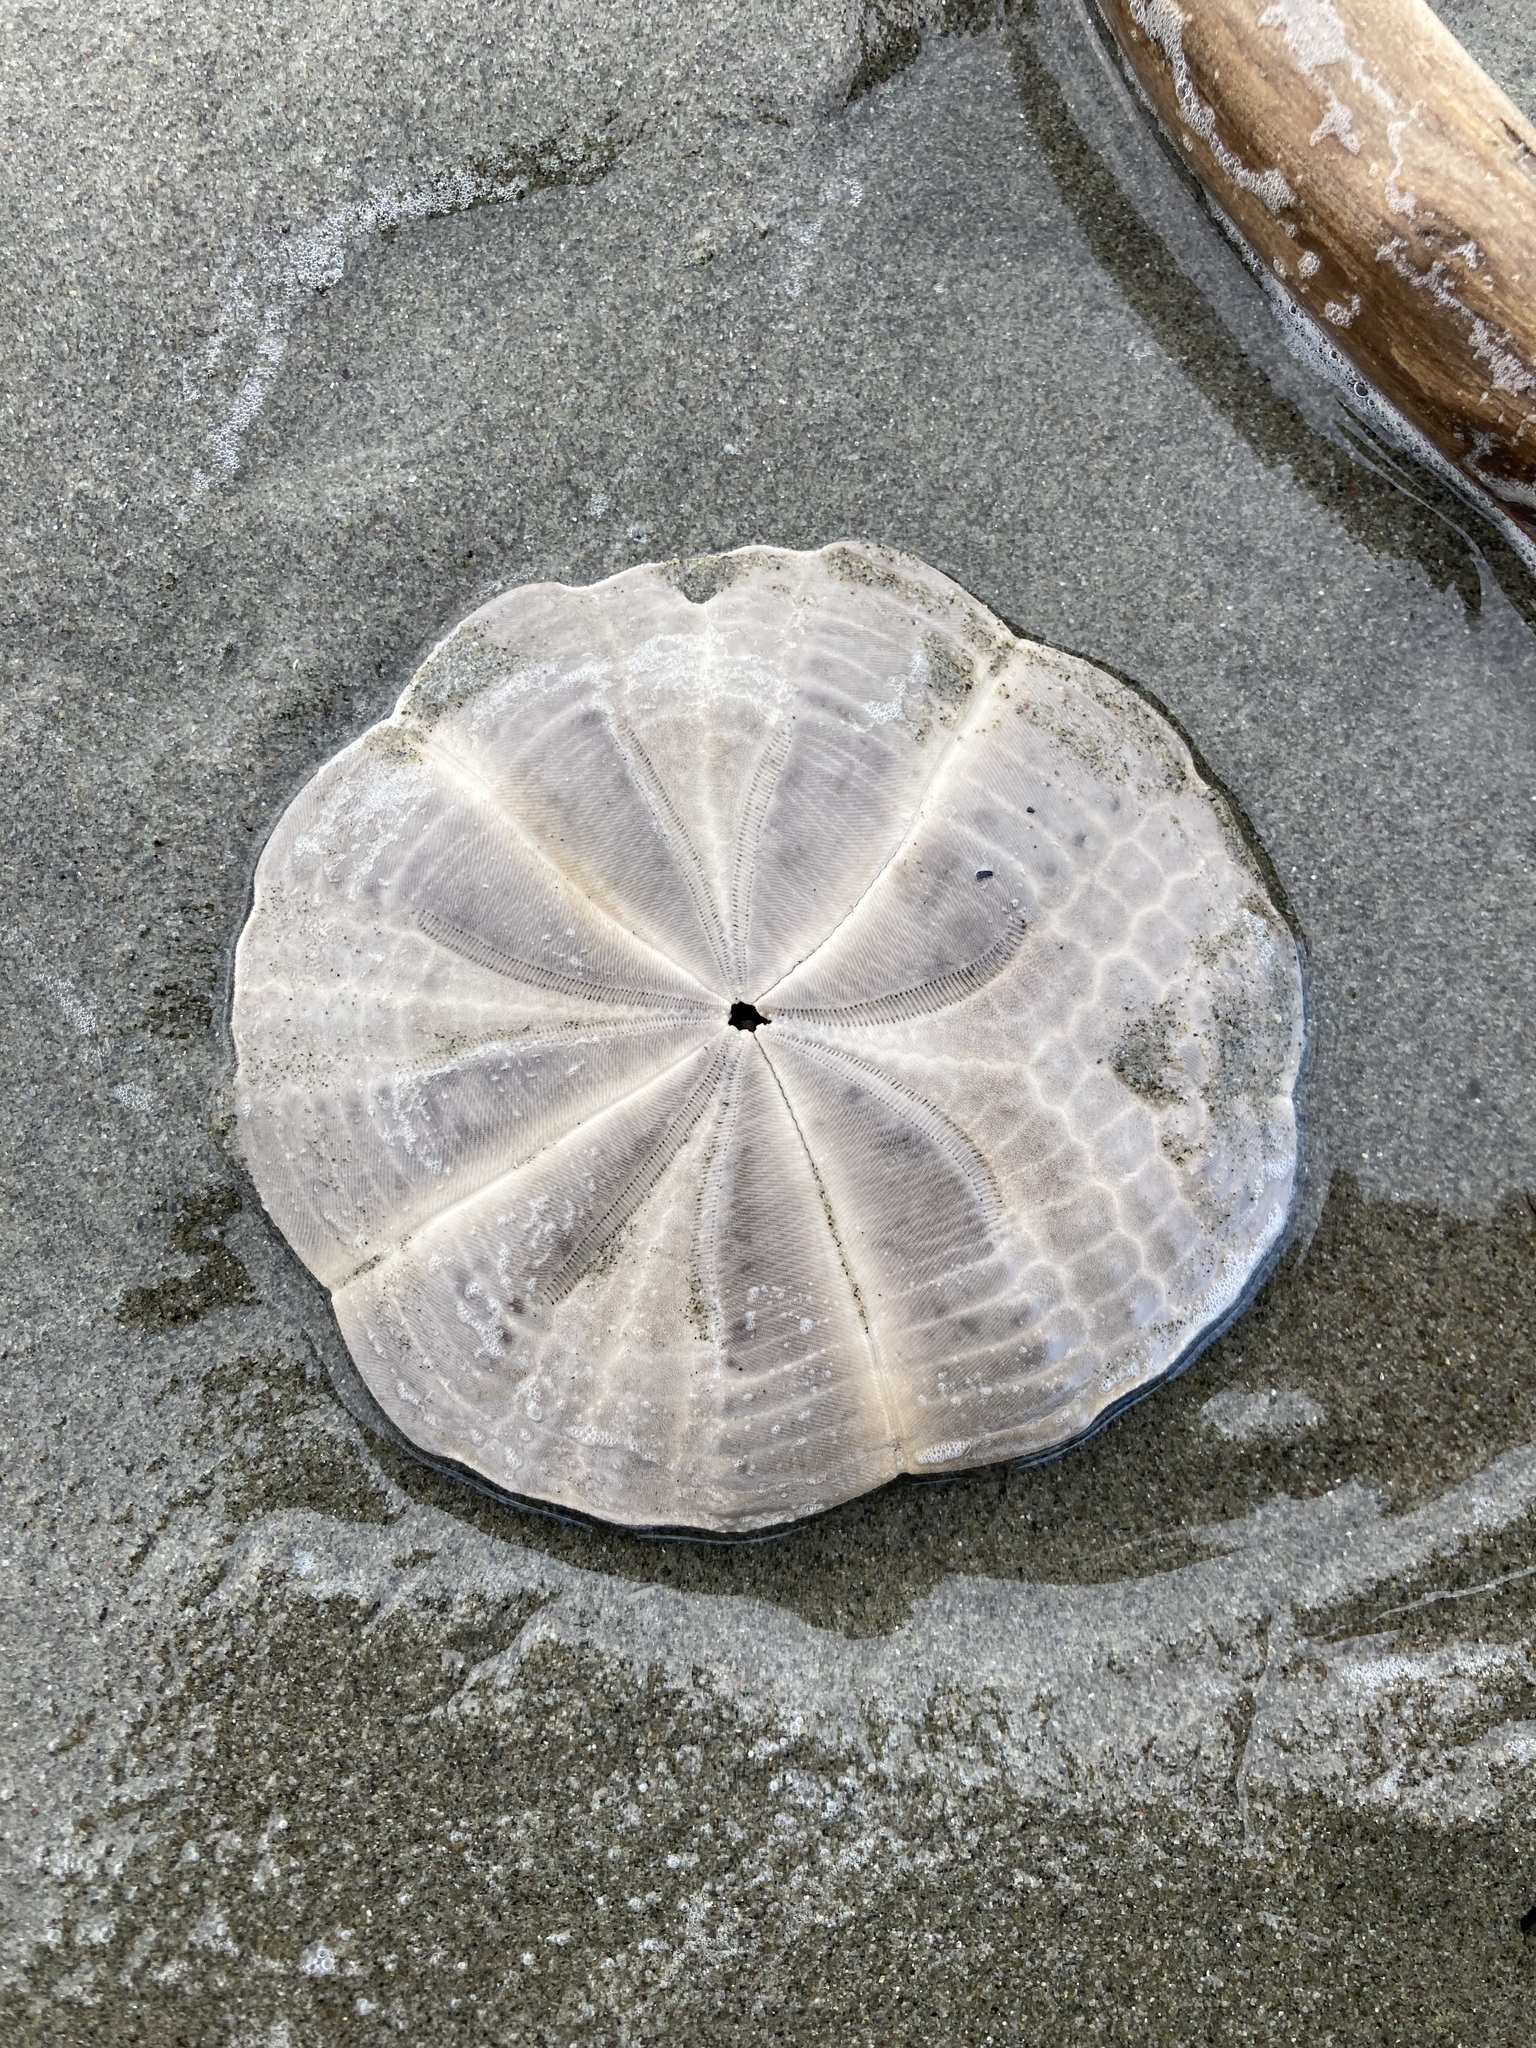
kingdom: Animalia
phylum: Echinodermata
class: Echinoidea
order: Clypeasteroida
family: Clypeasteridae
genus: Fellaster
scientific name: Fellaster zelandiae
